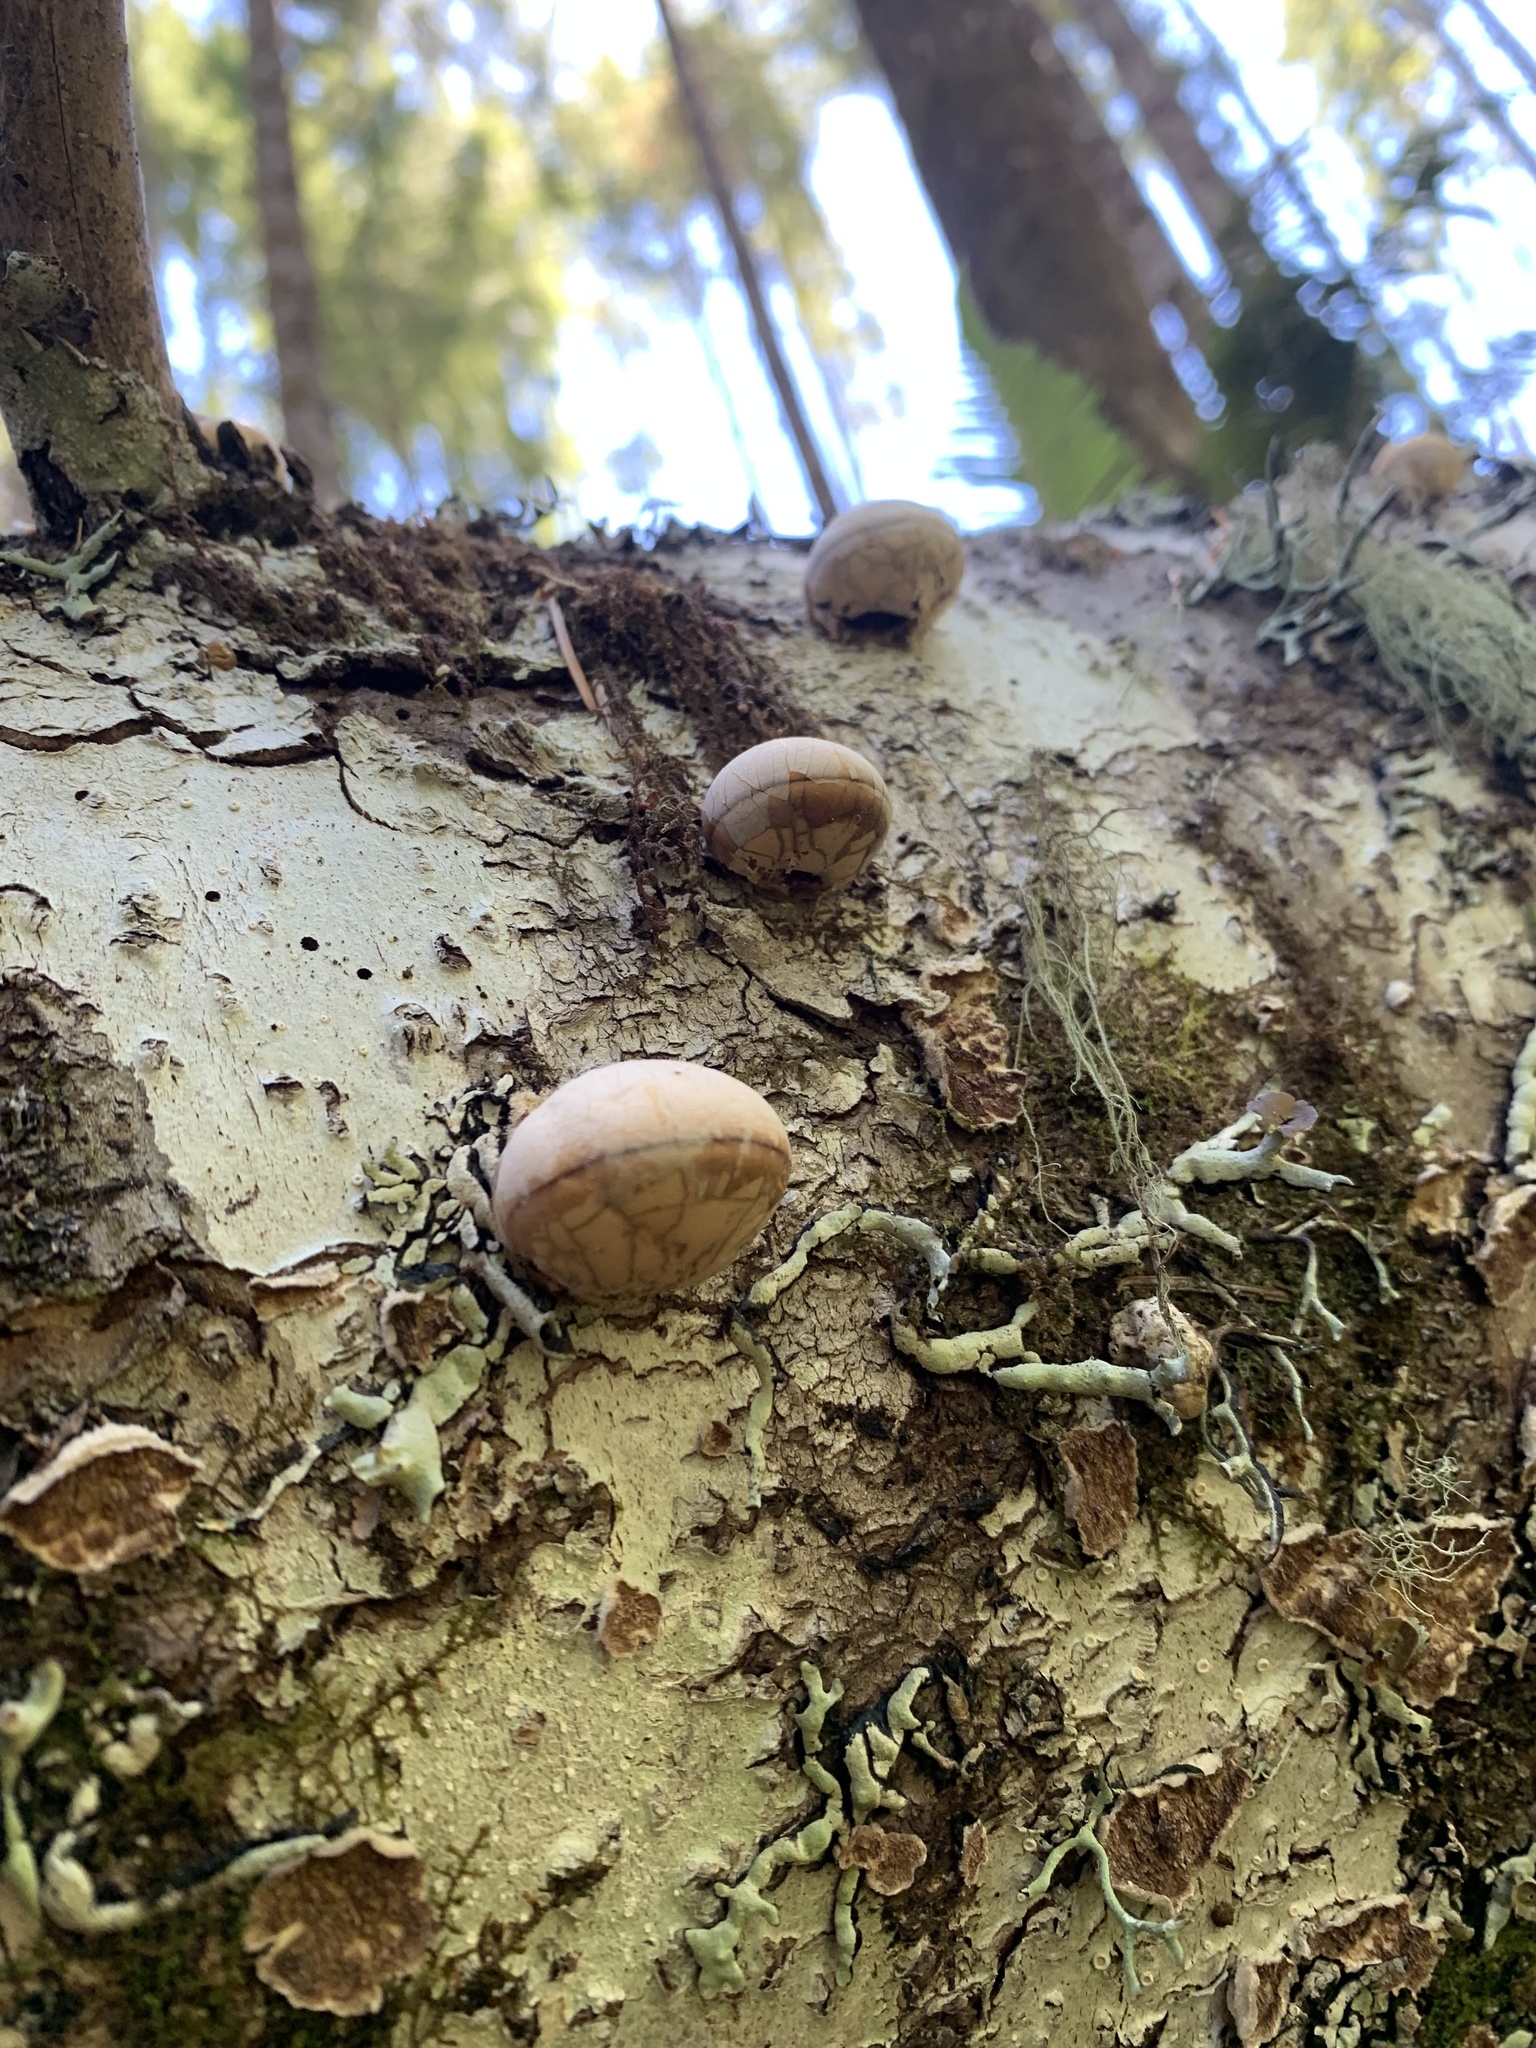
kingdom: Fungi
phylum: Basidiomycota
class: Agaricomycetes
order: Polyporales
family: Polyporaceae
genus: Cryptoporus
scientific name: Cryptoporus volvatus
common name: Veiled polypore
